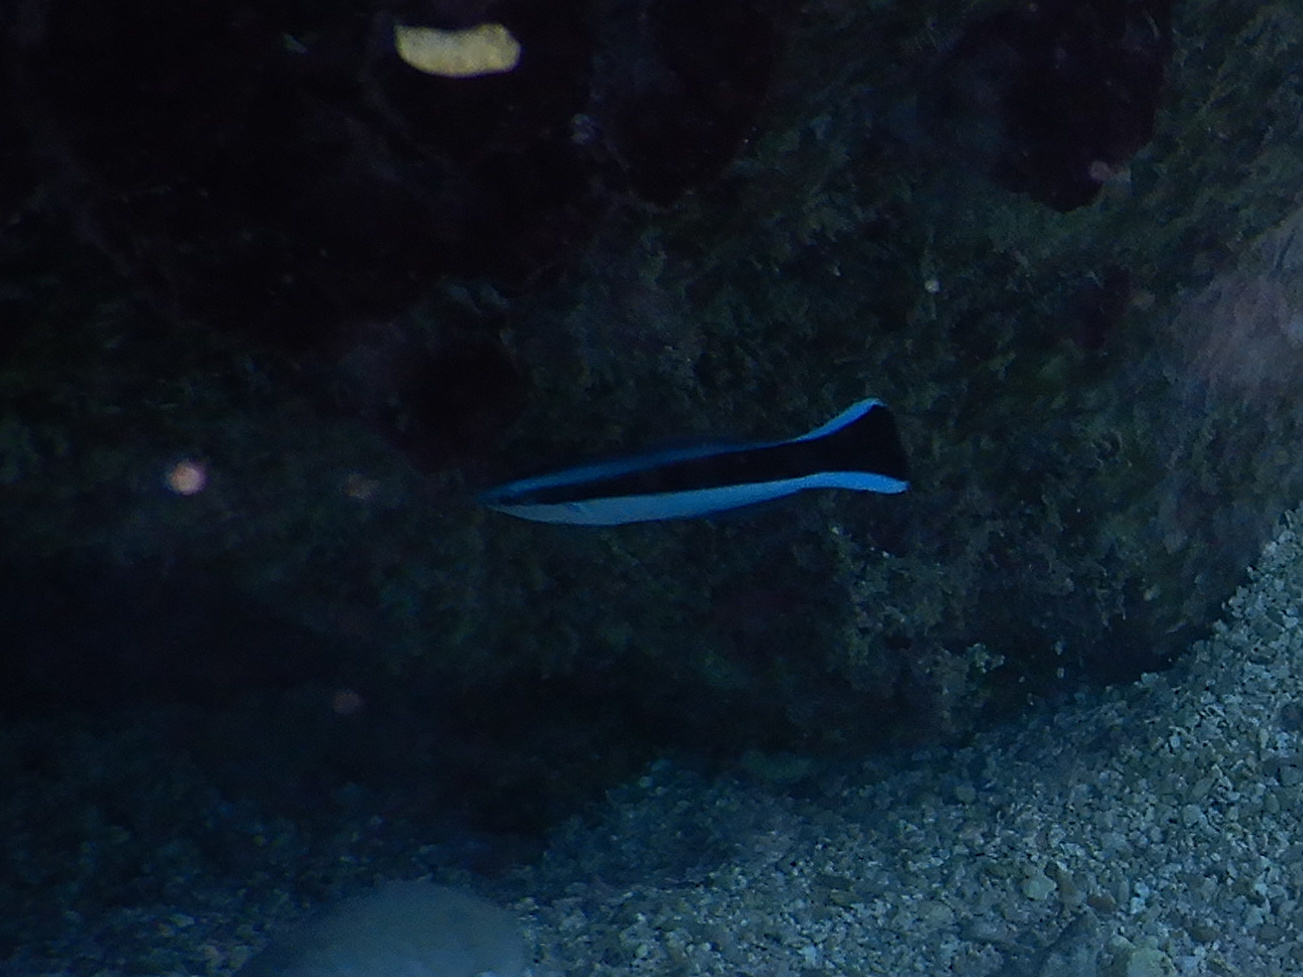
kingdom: Animalia
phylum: Chordata
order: Perciformes
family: Labridae
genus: Labroides
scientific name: Labroides dimidiatus
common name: Blue diesel wrasse
